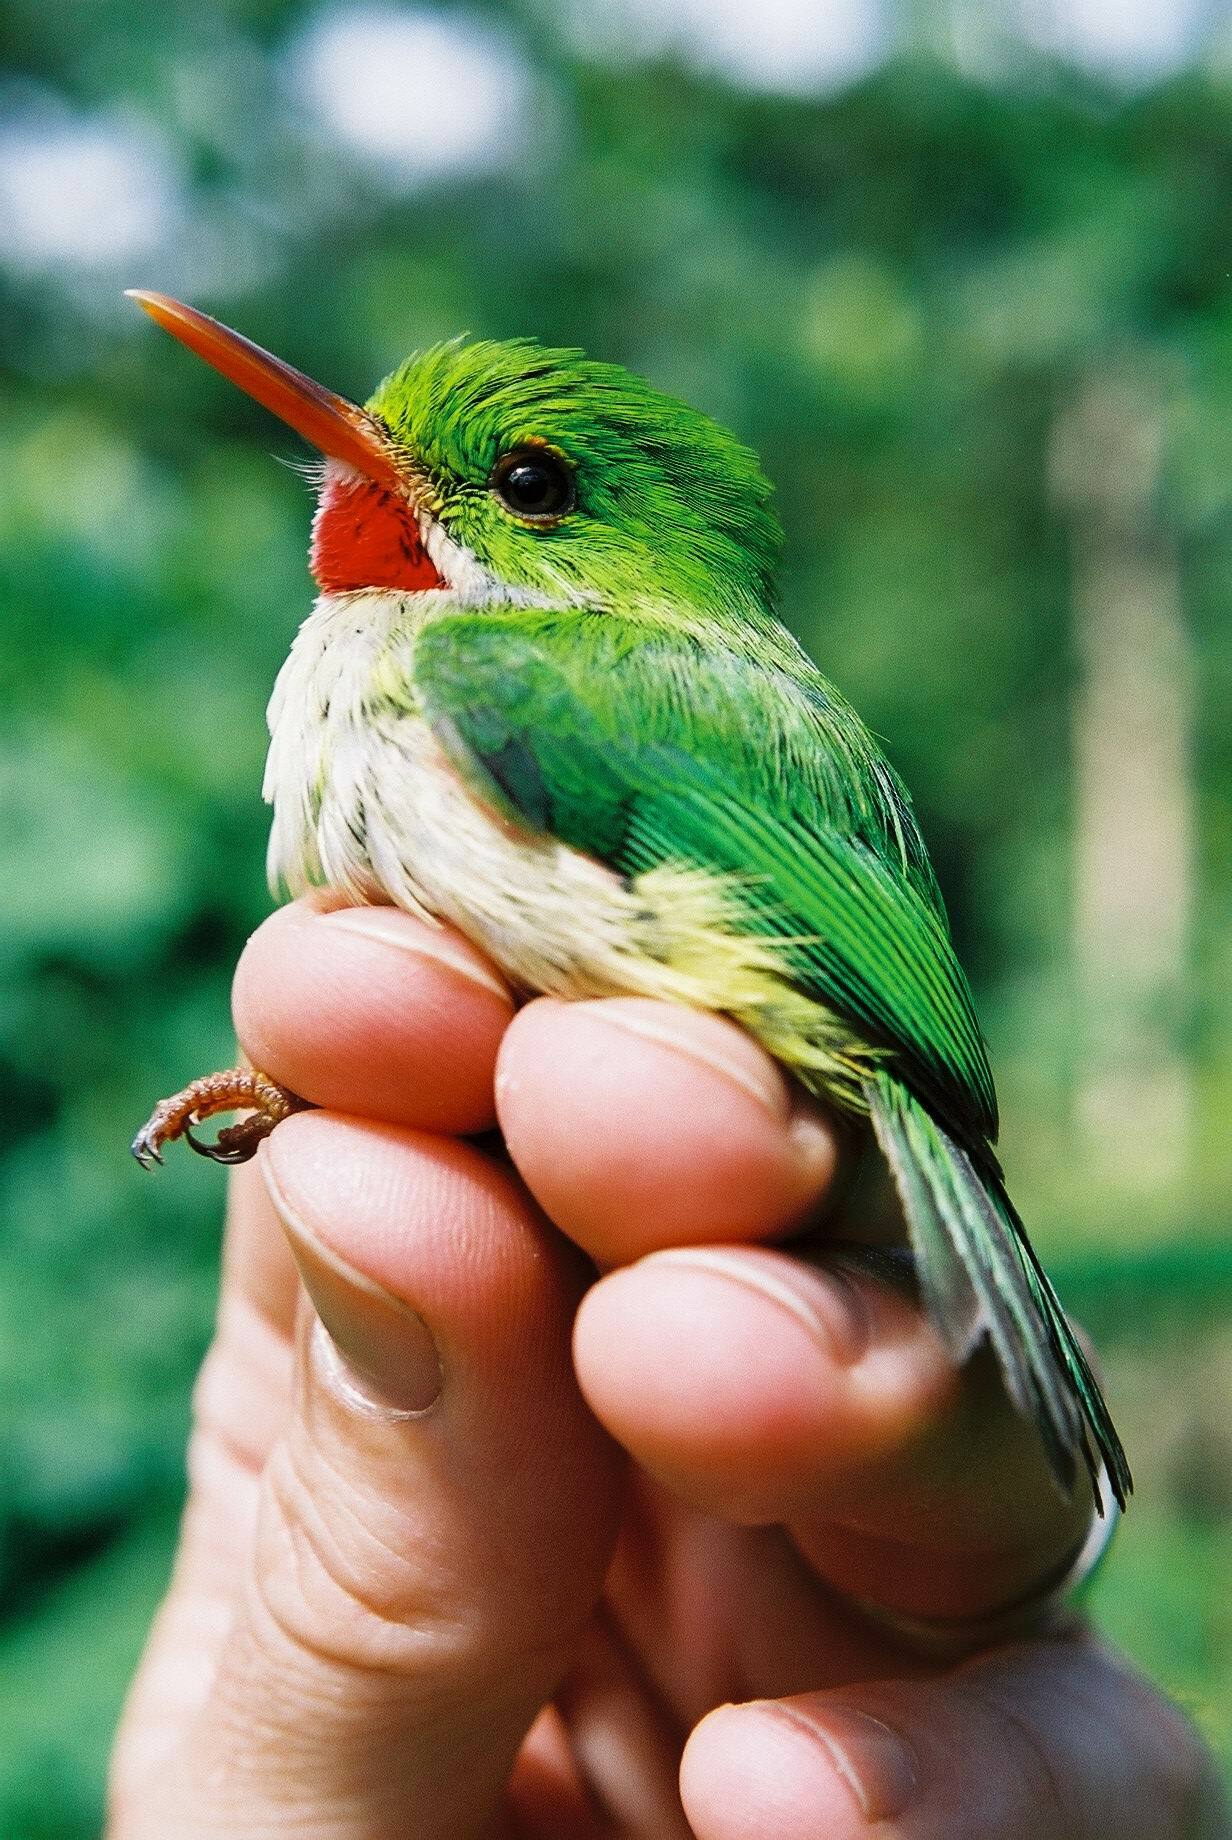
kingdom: Animalia
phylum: Chordata
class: Aves
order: Coraciiformes
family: Todidae
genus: Todus
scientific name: Todus todus
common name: Jamaican tody
